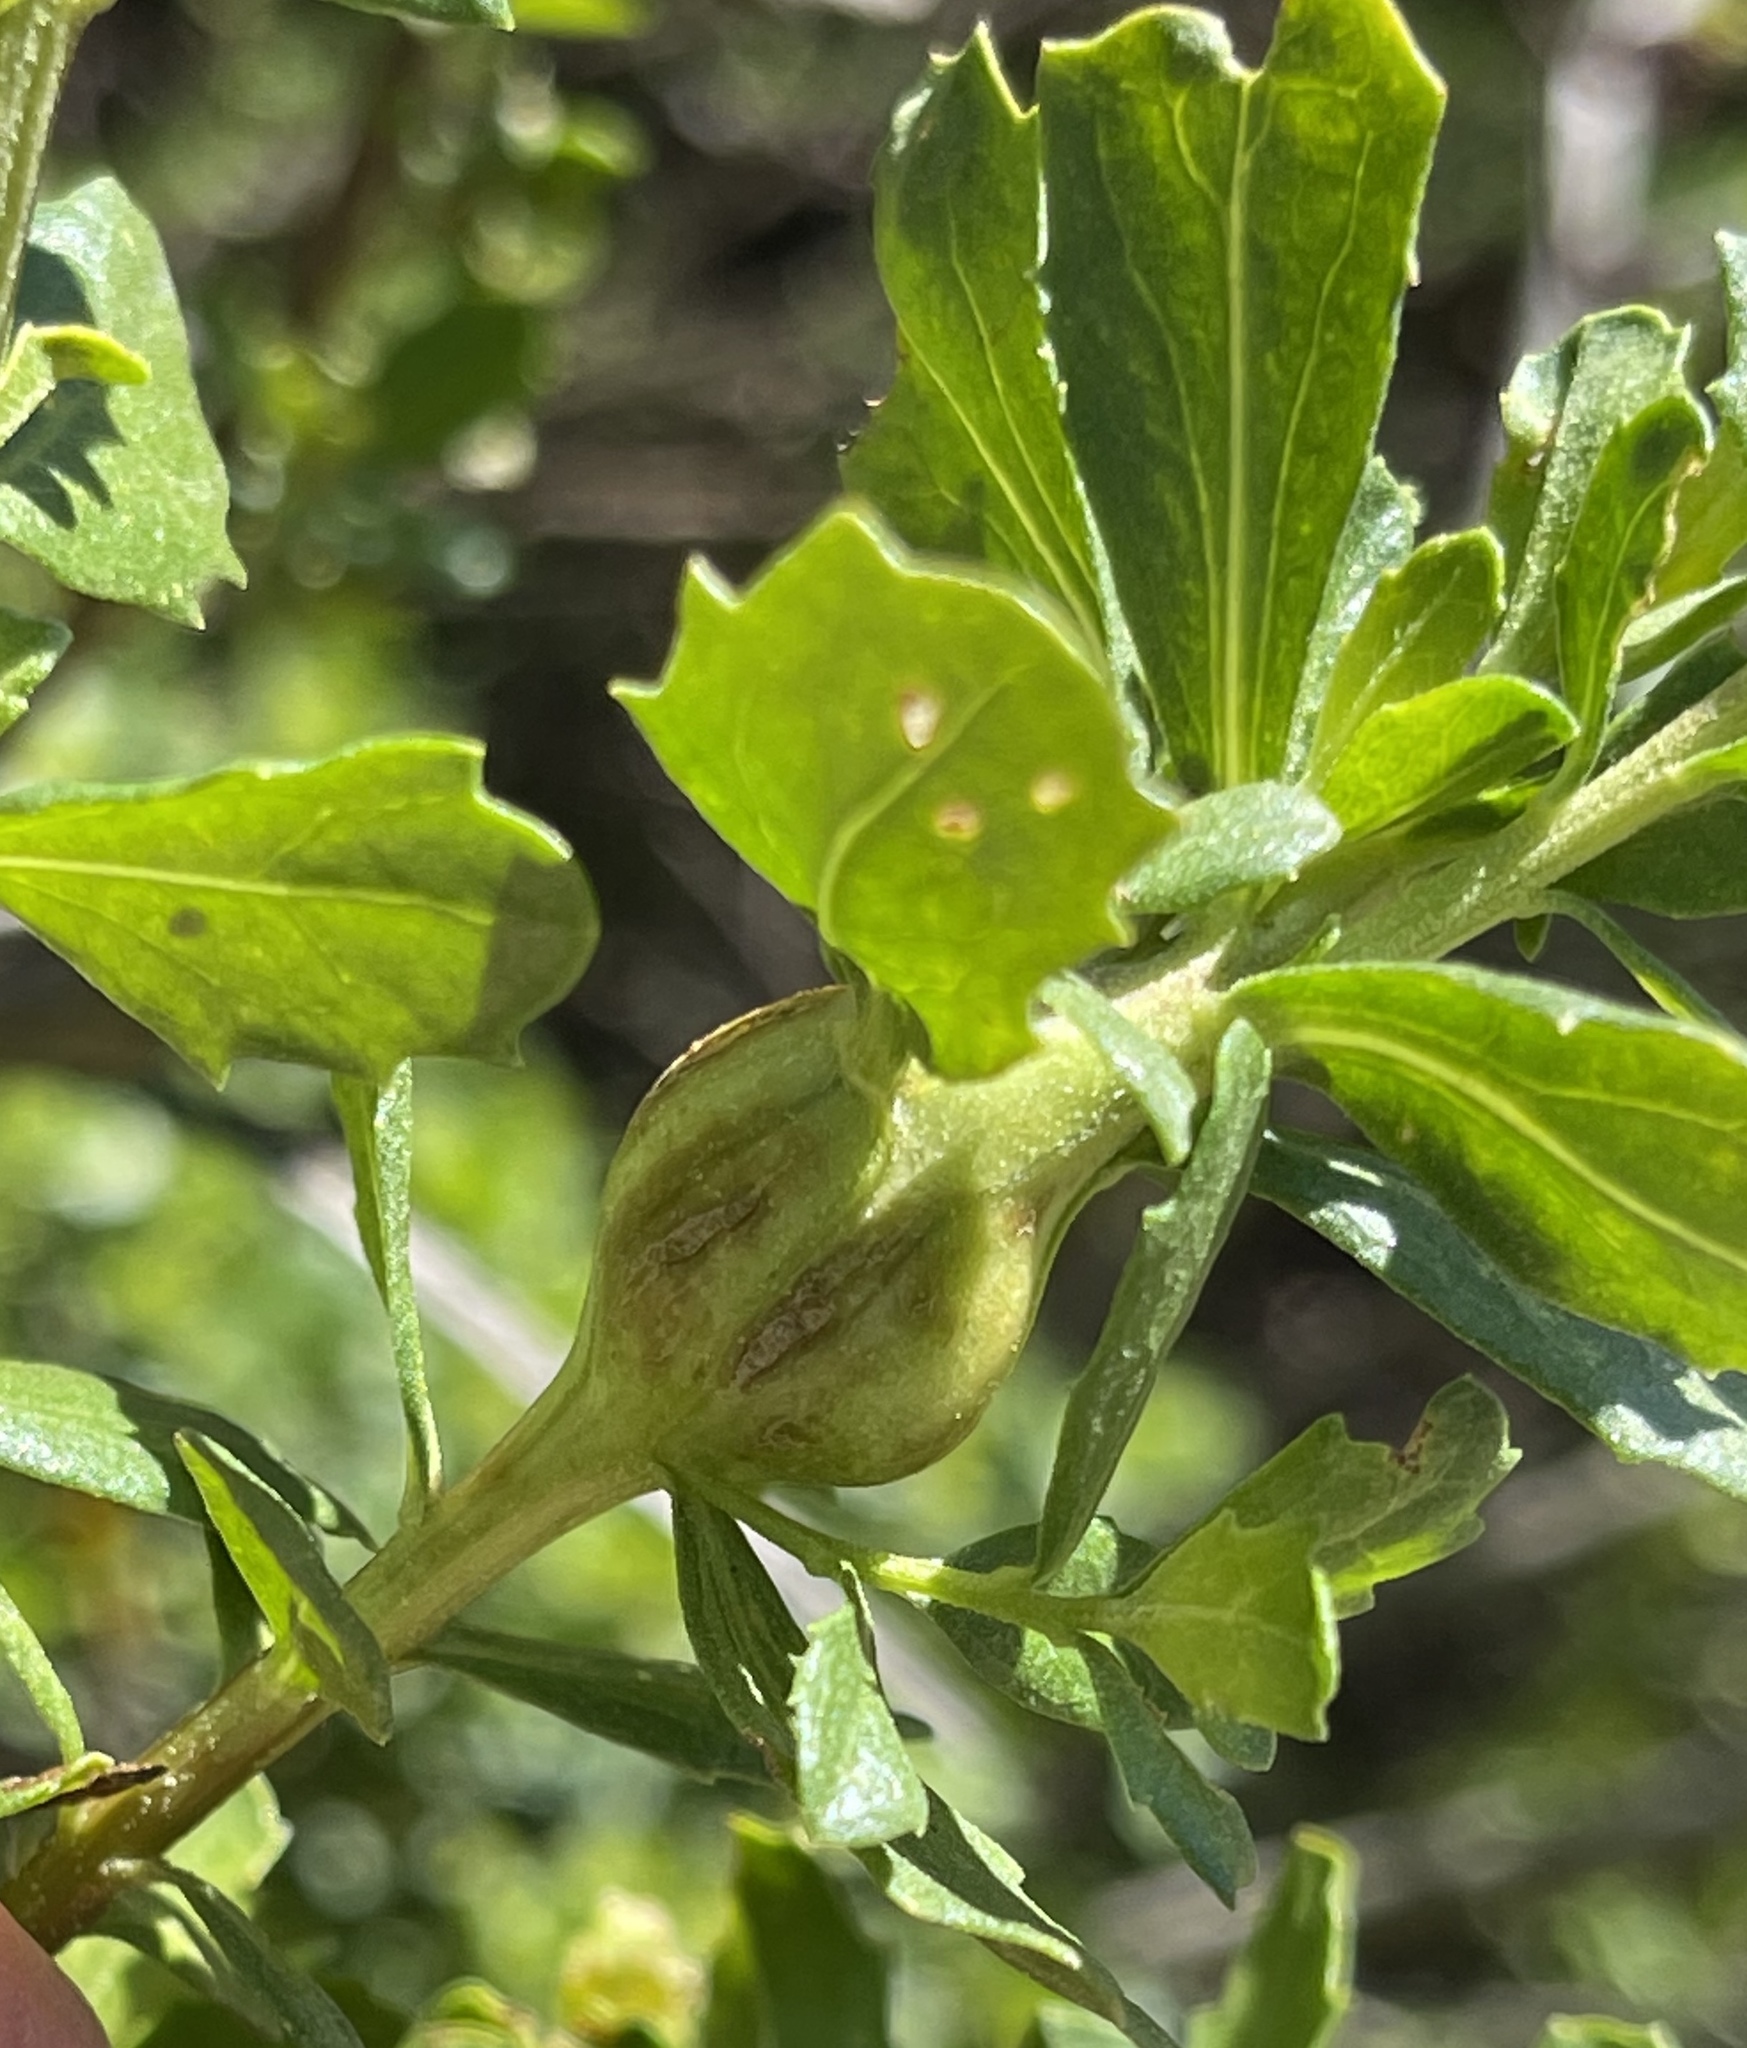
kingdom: Animalia
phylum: Arthropoda
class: Insecta
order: Lepidoptera
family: Gelechiidae
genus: Gnorimoschema
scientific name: Gnorimoschema baccharisella
